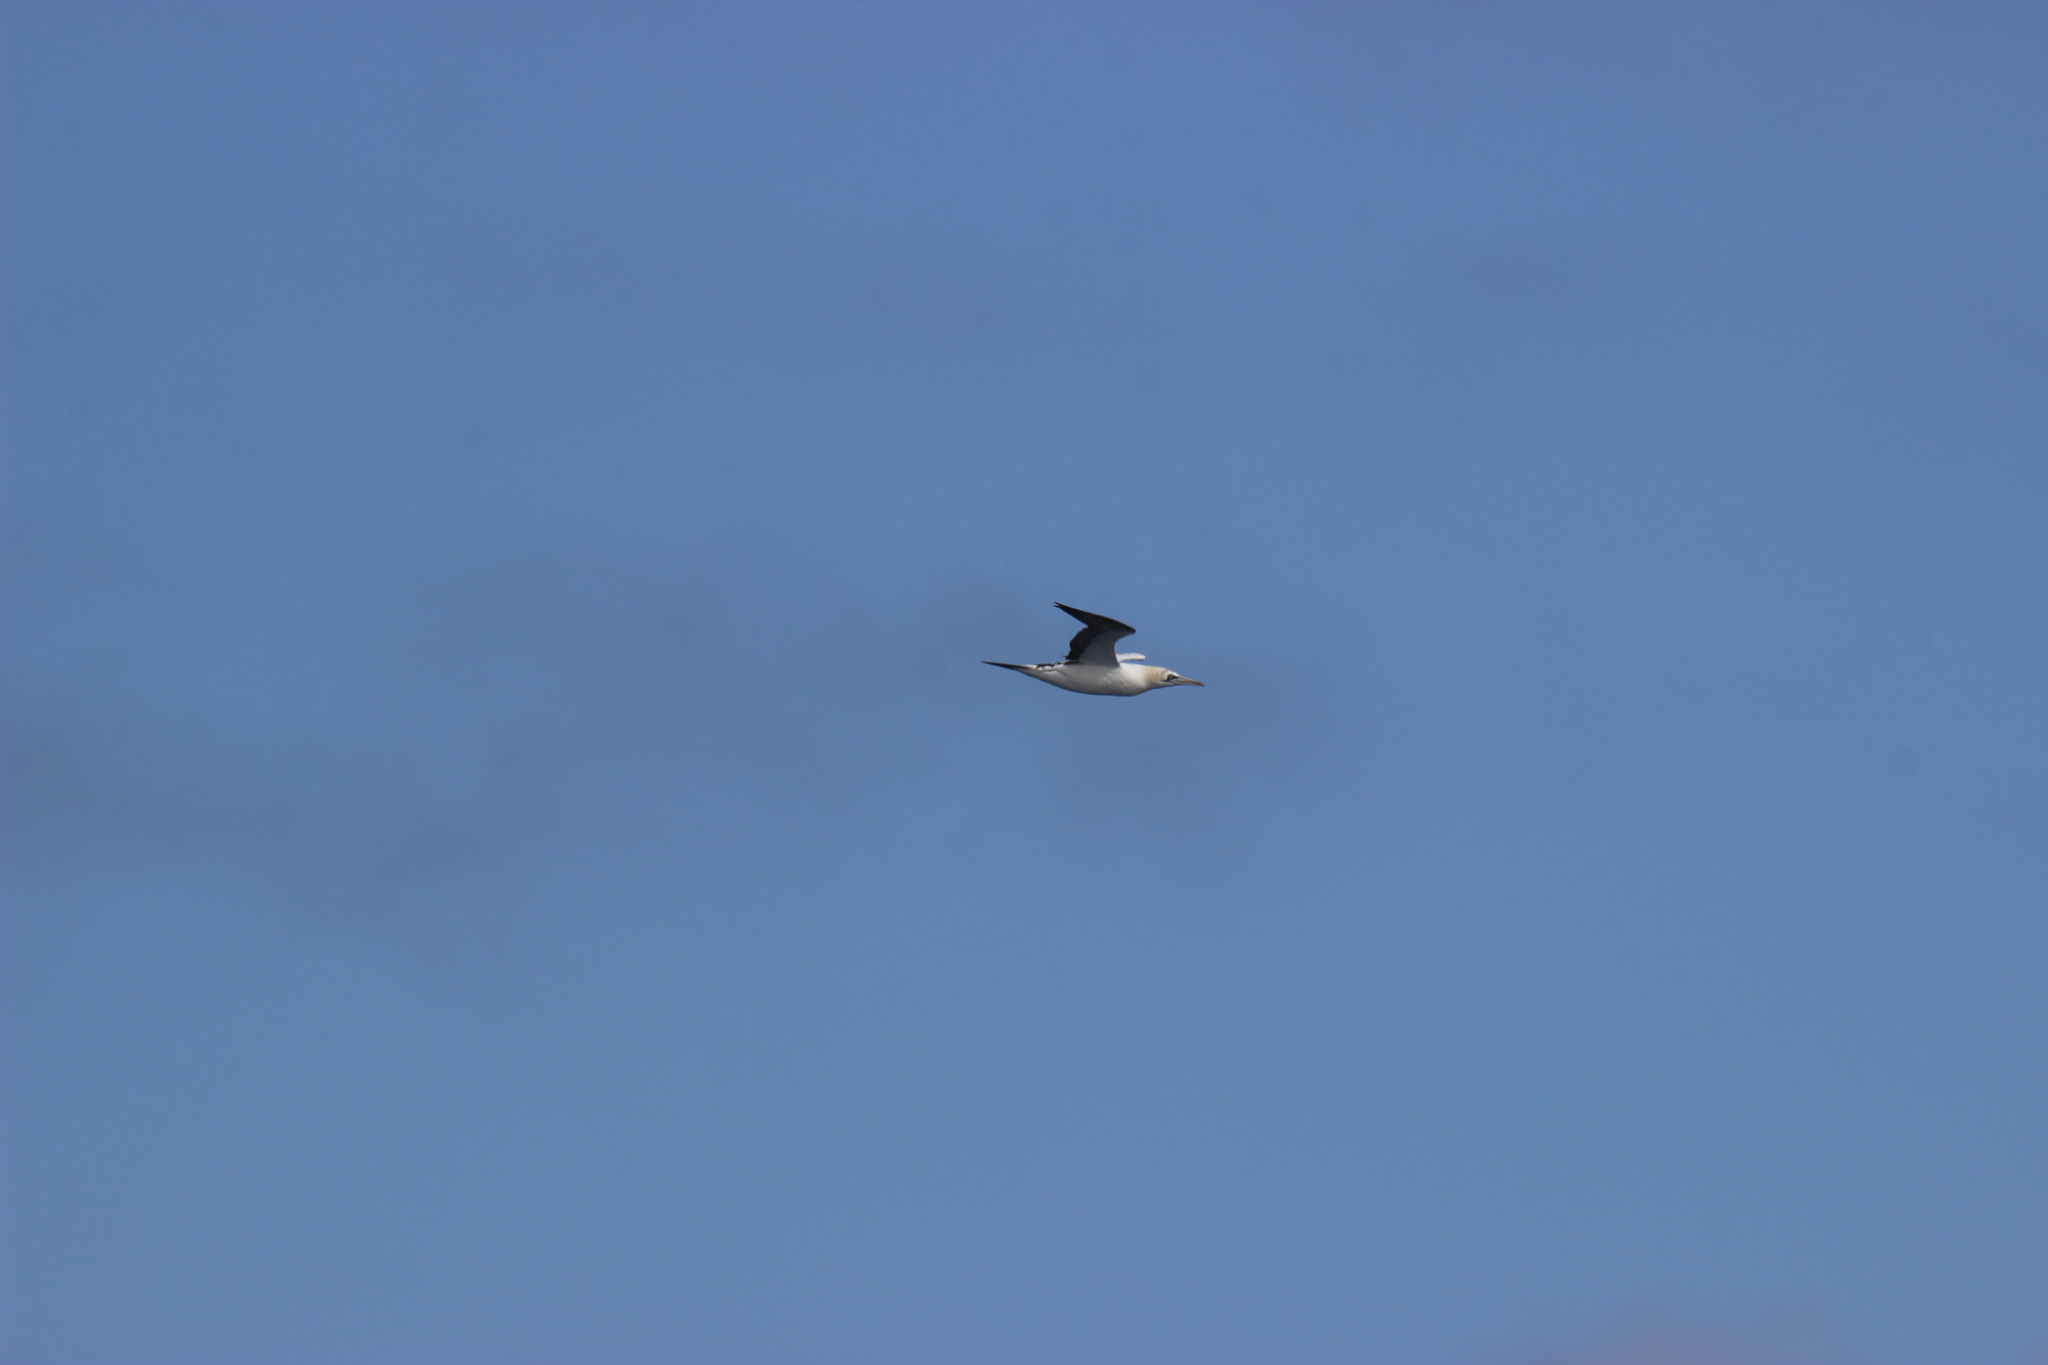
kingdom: Animalia
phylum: Chordata
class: Aves
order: Suliformes
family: Sulidae
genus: Morus
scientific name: Morus bassanus
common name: Northern gannet
